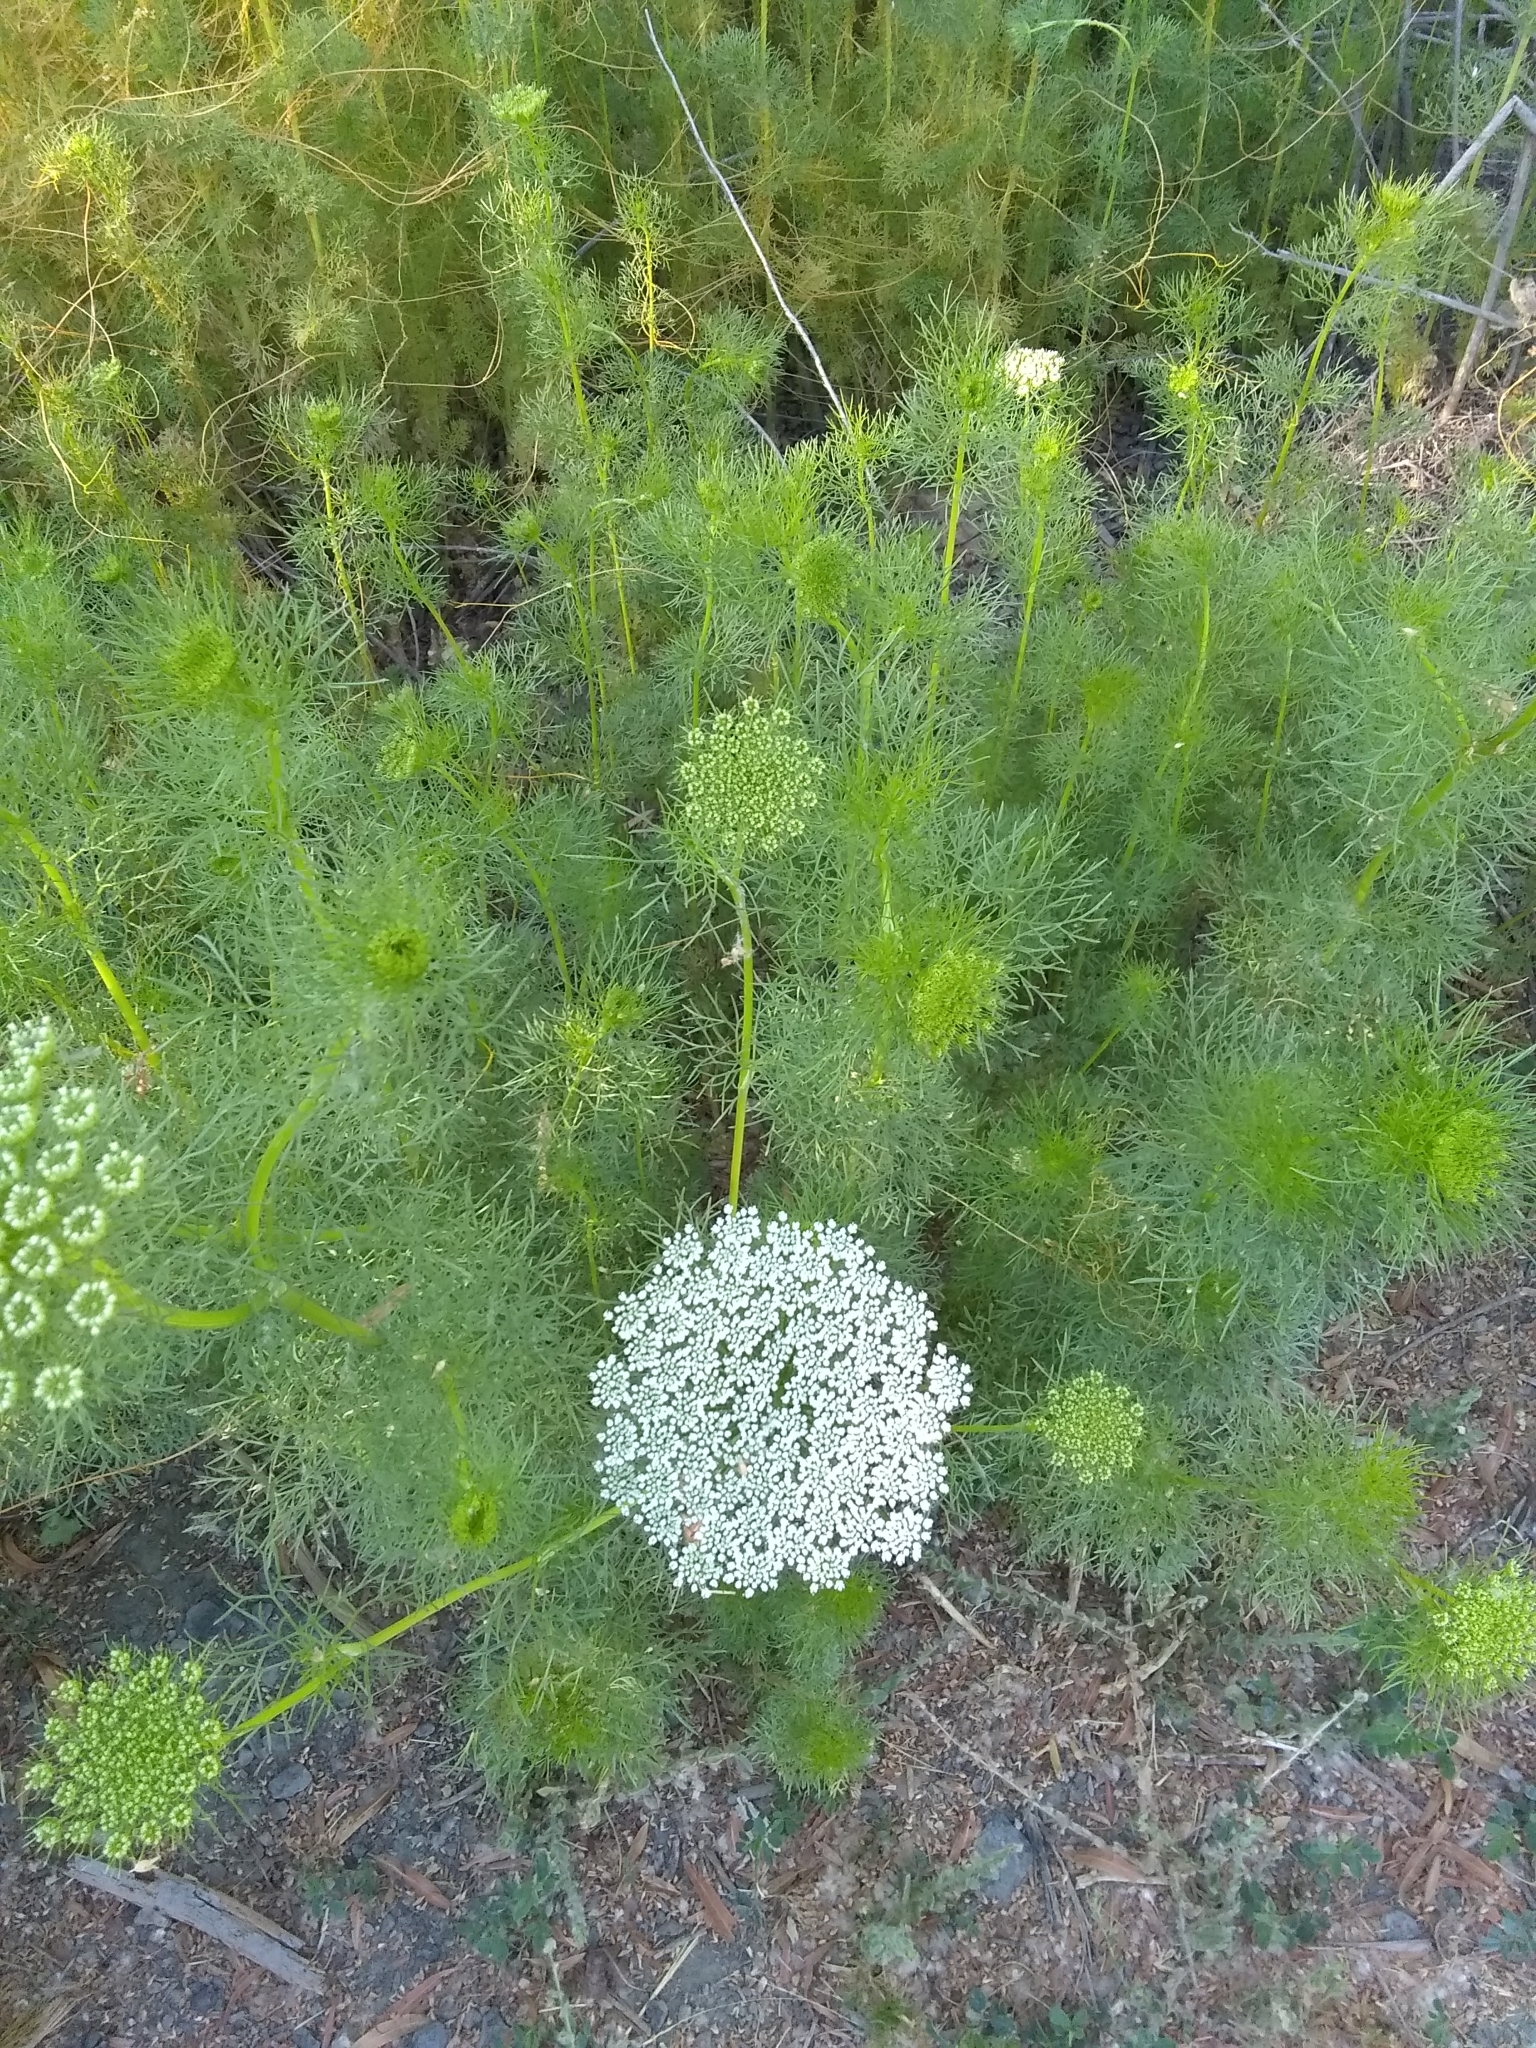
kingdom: Plantae
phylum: Tracheophyta
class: Magnoliopsida
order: Apiales
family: Apiaceae
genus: Visnaga
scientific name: Visnaga daucoides
